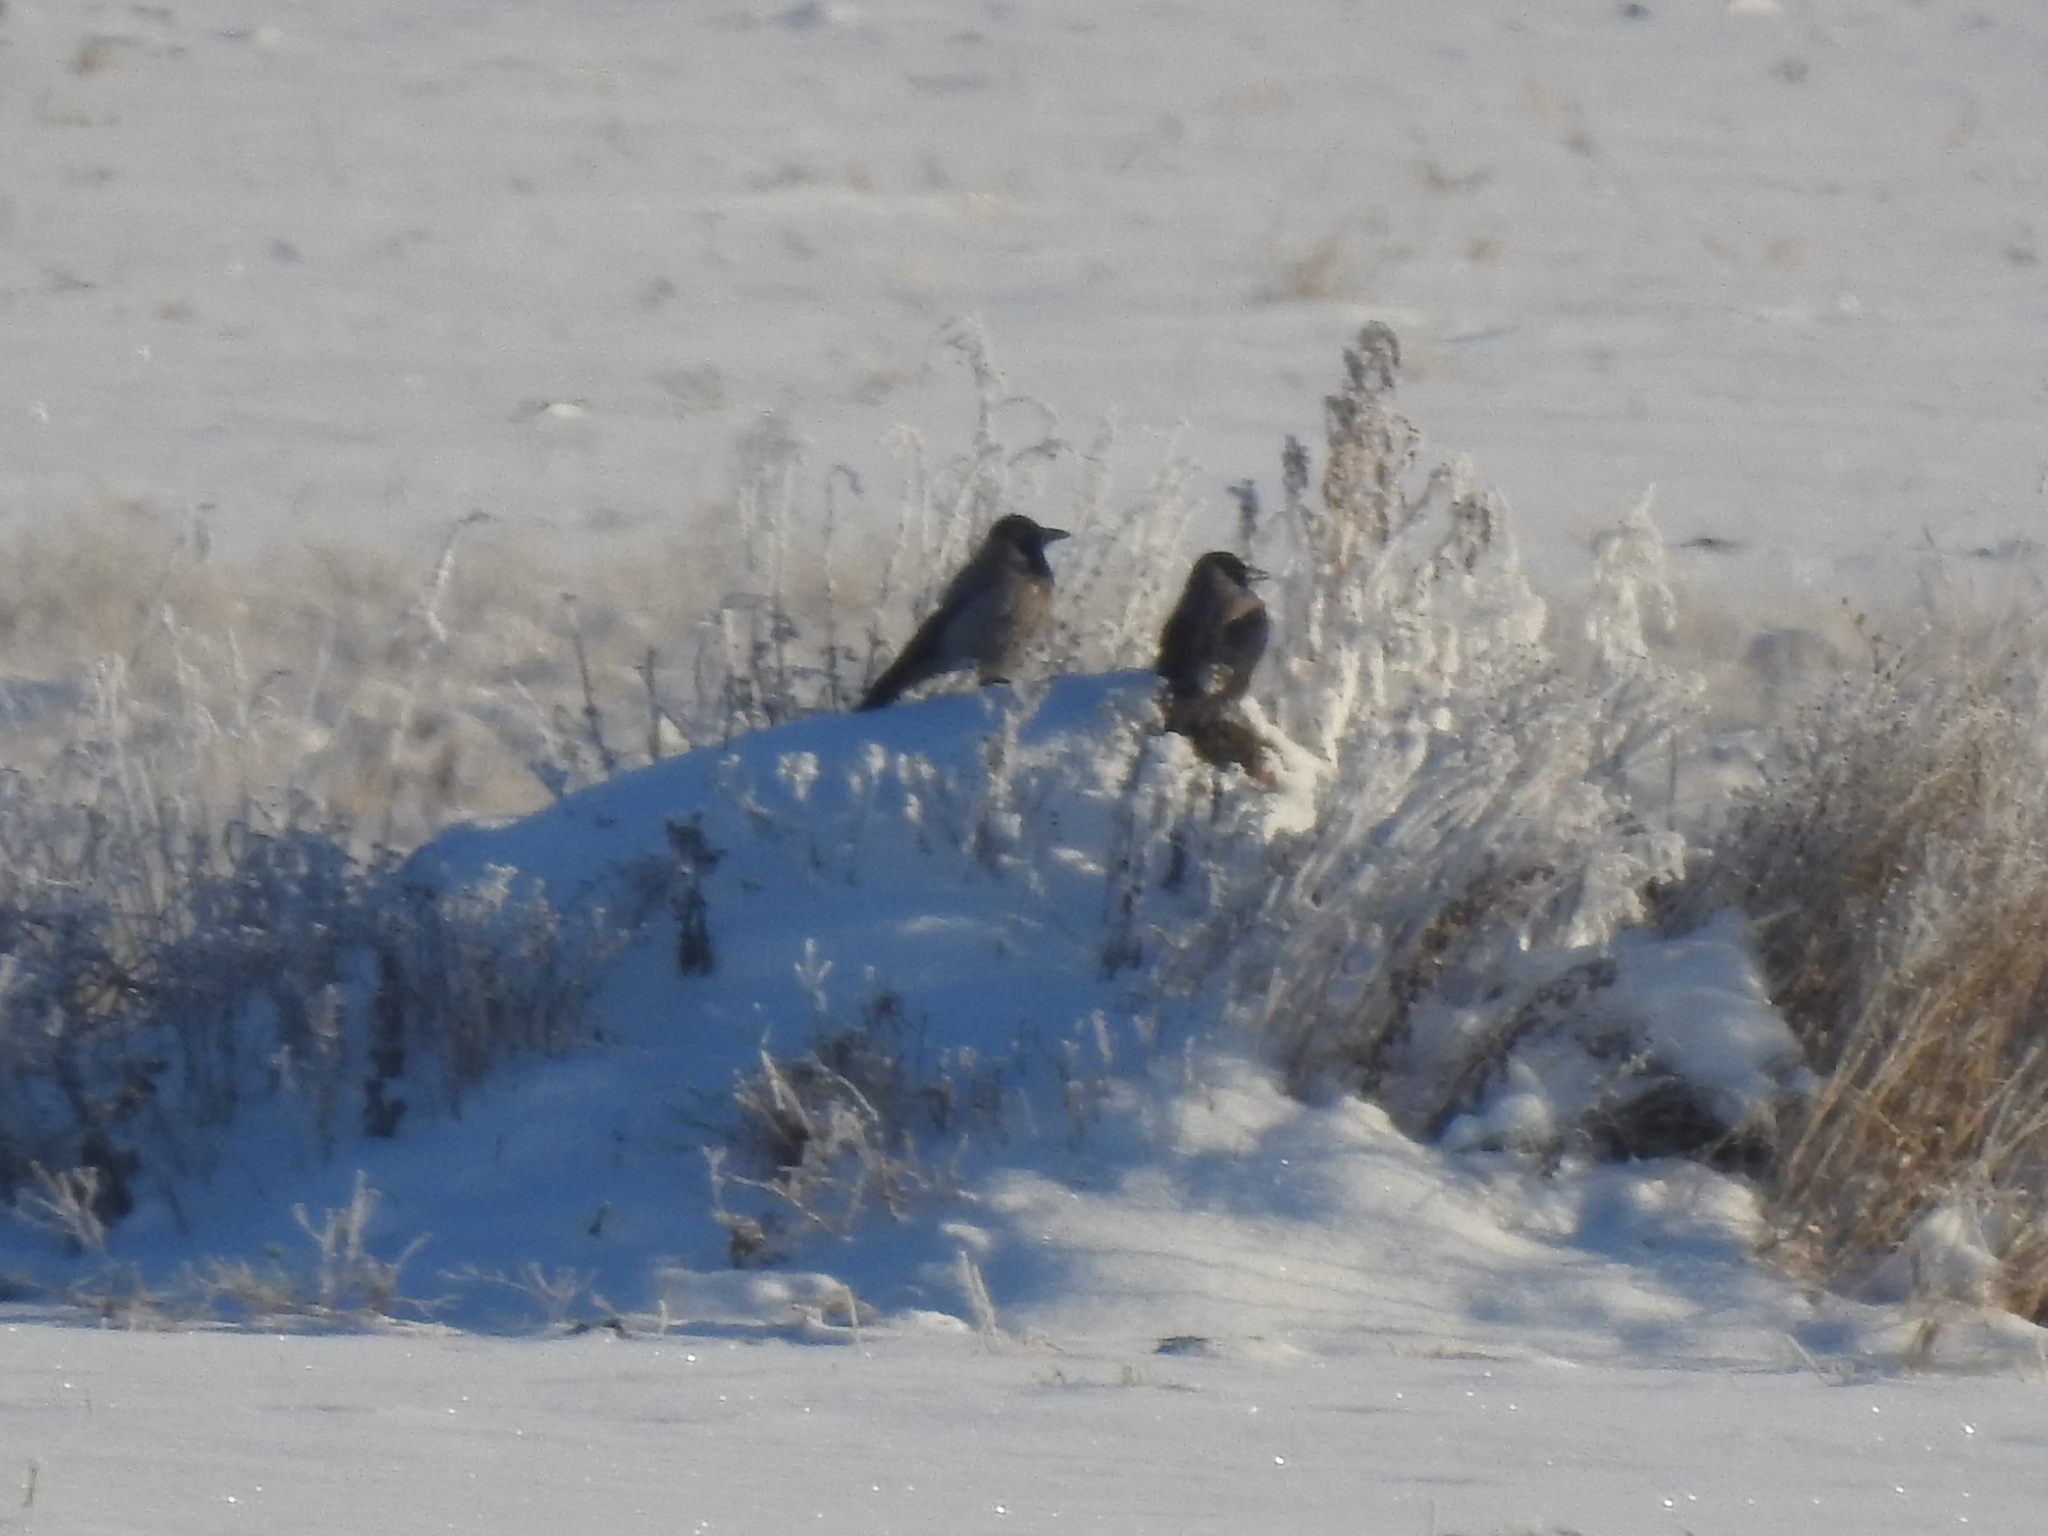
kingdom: Animalia
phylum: Chordata
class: Aves
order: Passeriformes
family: Corvidae
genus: Corvus
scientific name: Corvus cornix
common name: Hooded crow
